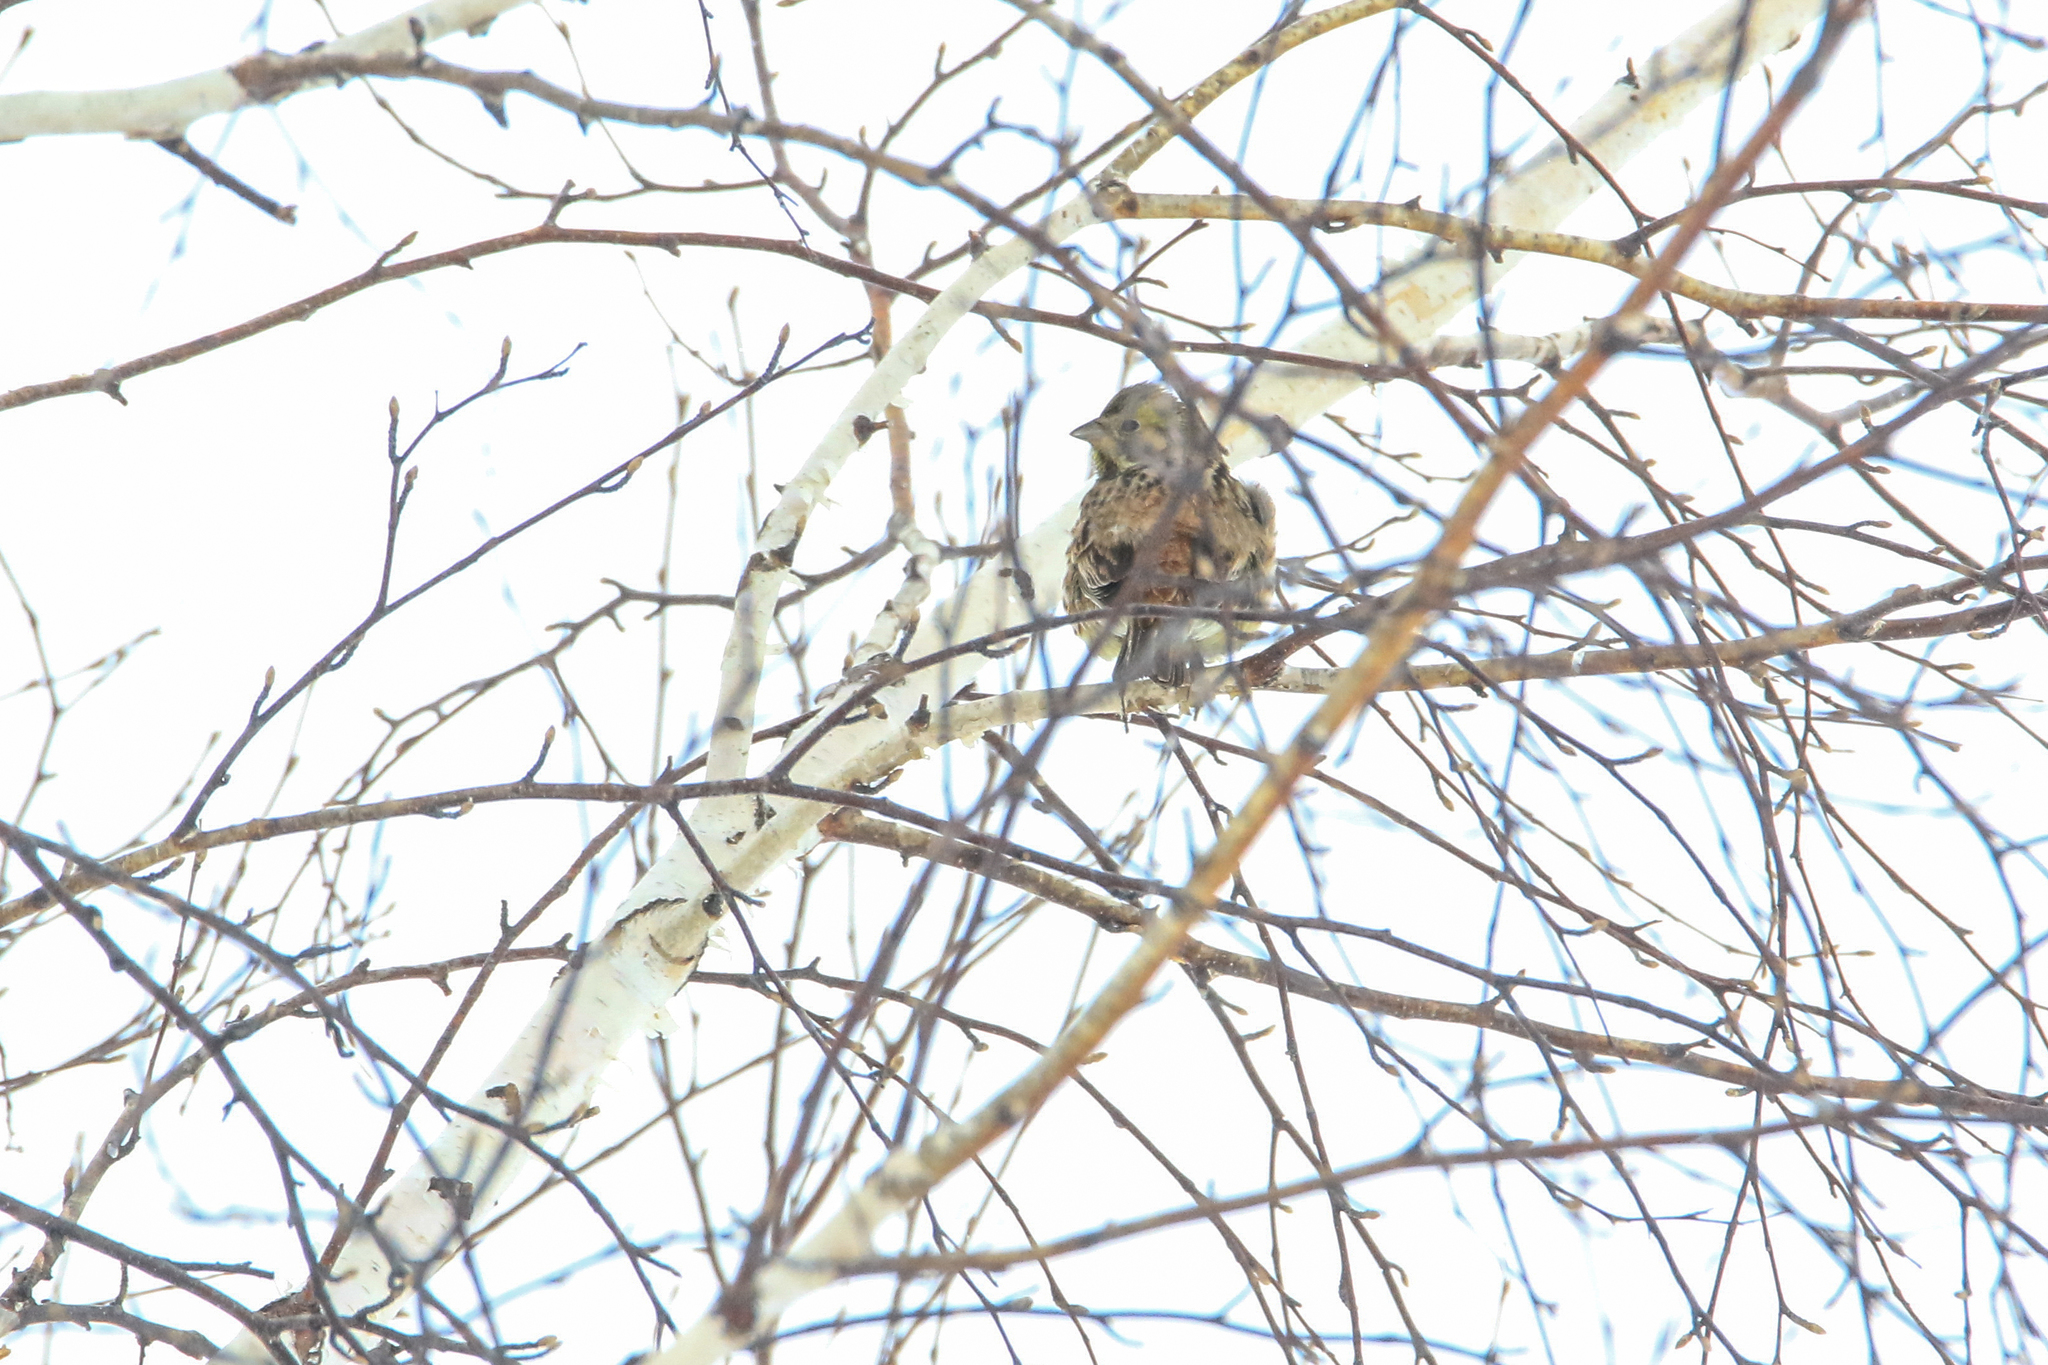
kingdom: Animalia
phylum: Chordata
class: Aves
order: Passeriformes
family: Emberizidae
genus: Emberiza
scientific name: Emberiza citrinella
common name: Yellowhammer
